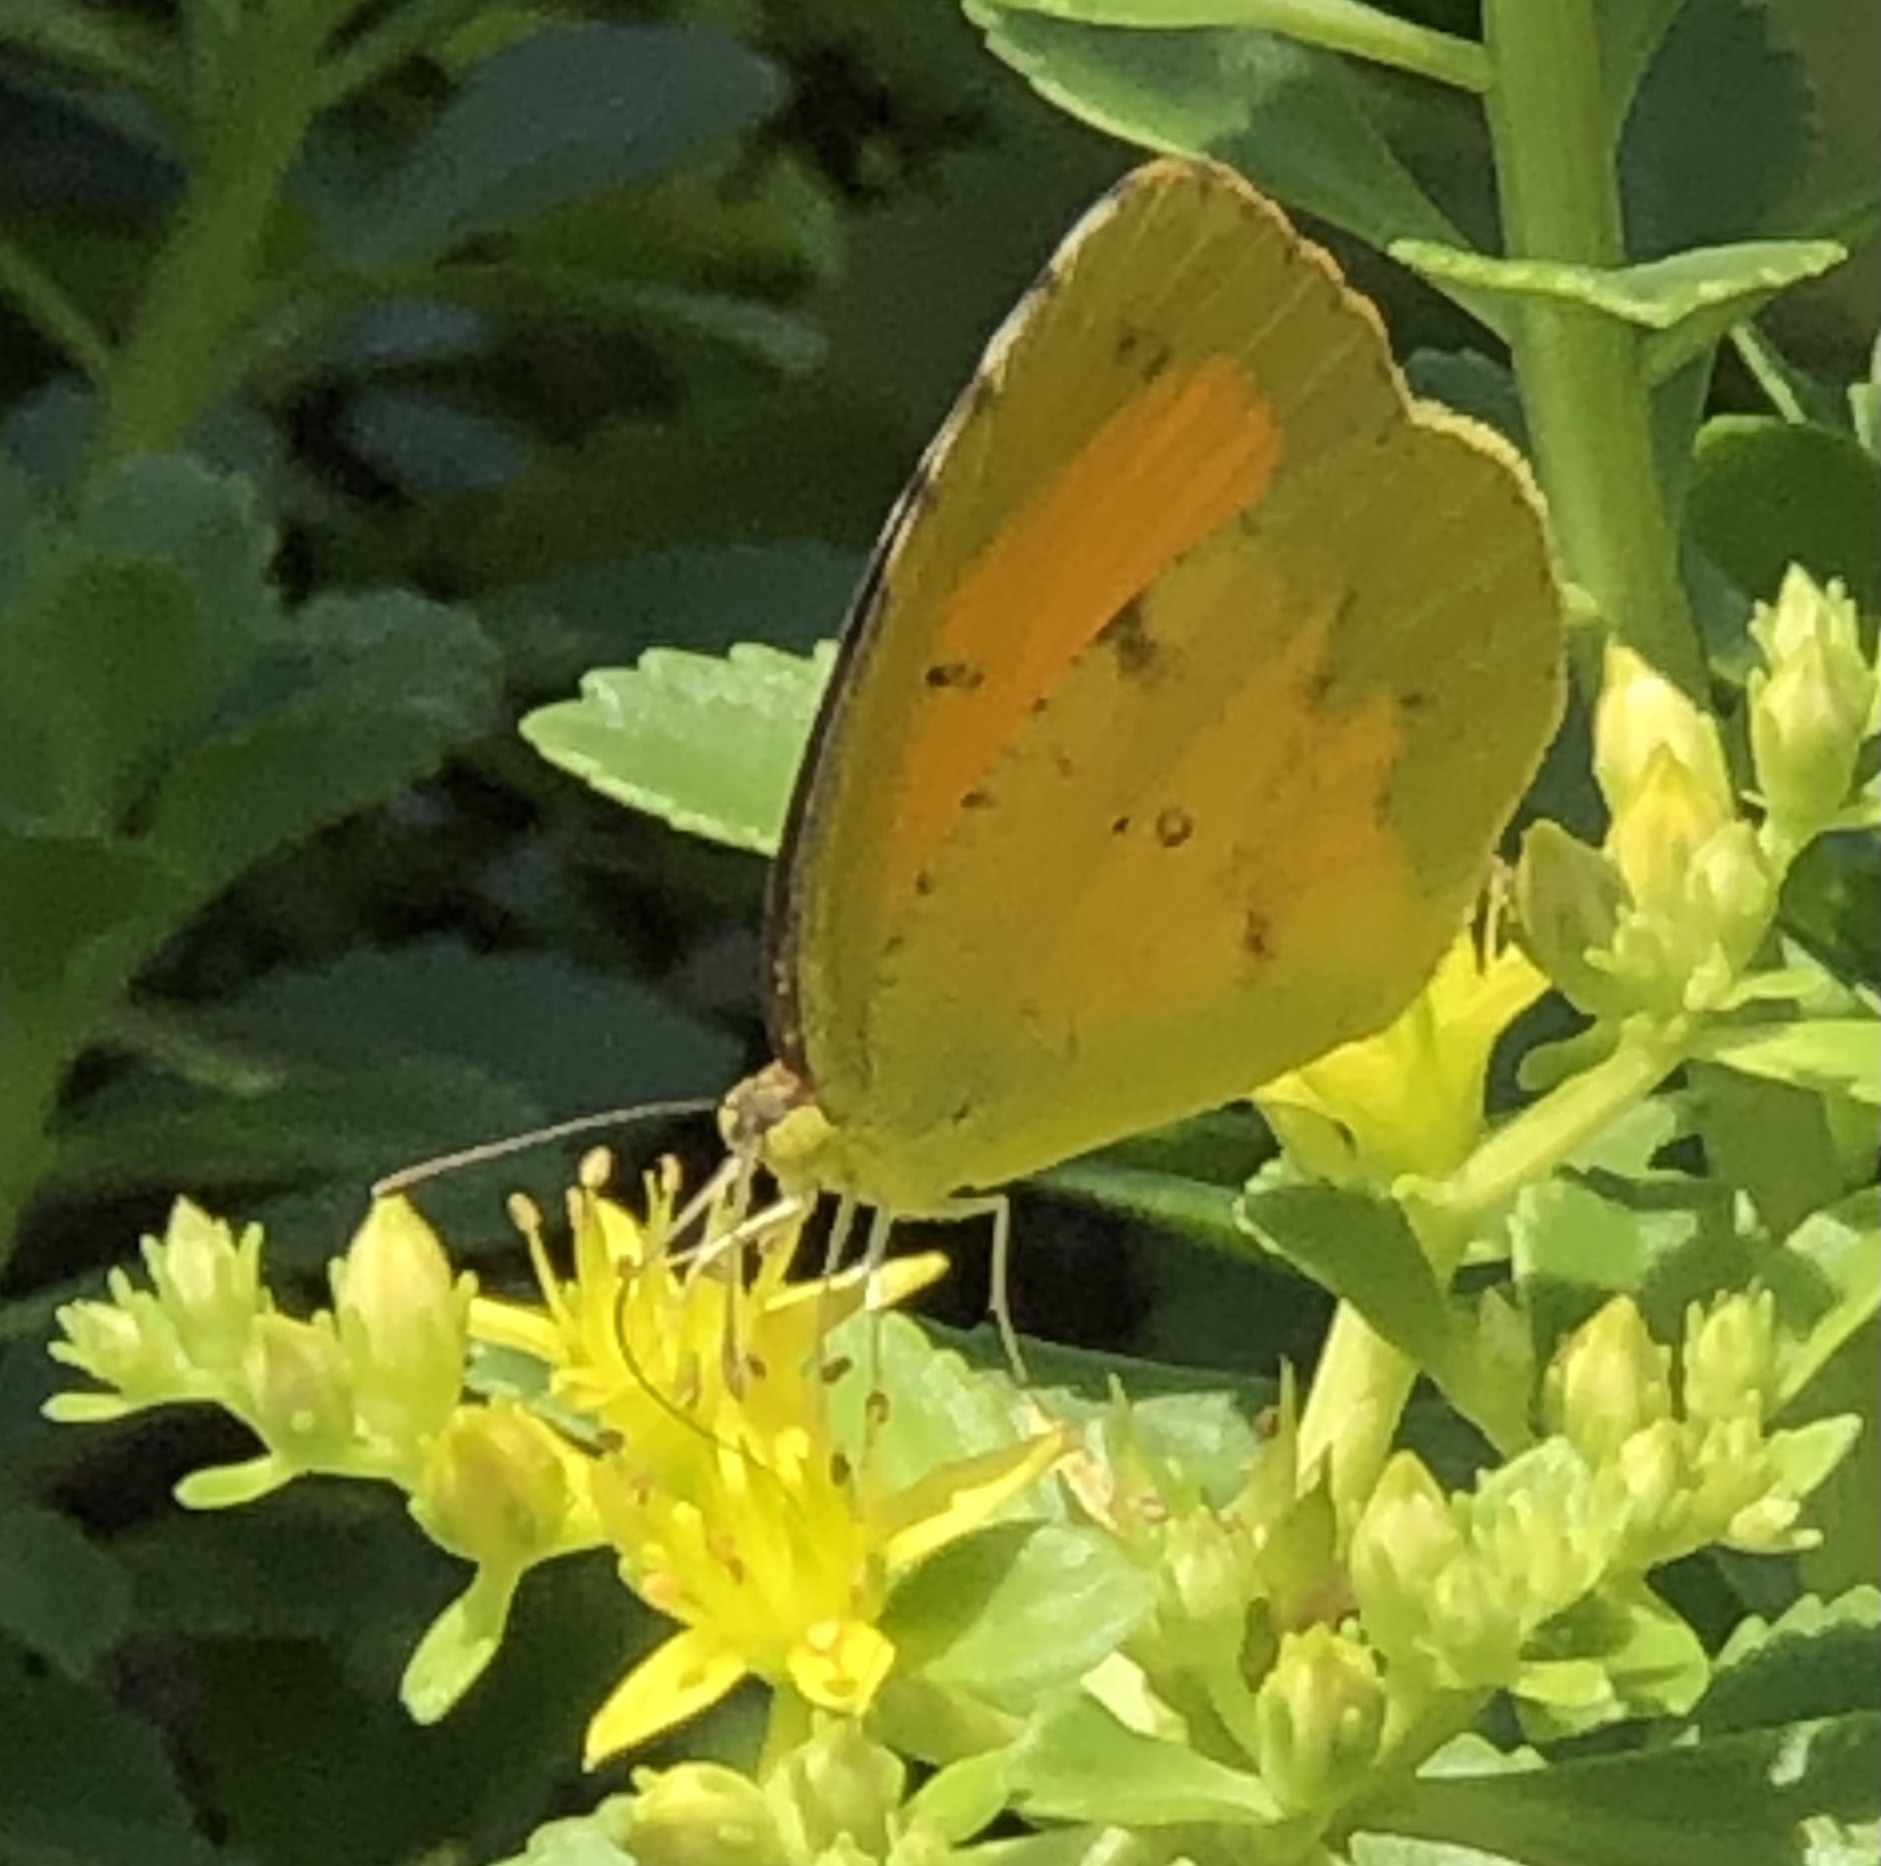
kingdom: Animalia
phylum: Arthropoda
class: Insecta
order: Lepidoptera
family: Pieridae
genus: Abaeis
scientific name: Abaeis nicippe
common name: Sleepy orange
